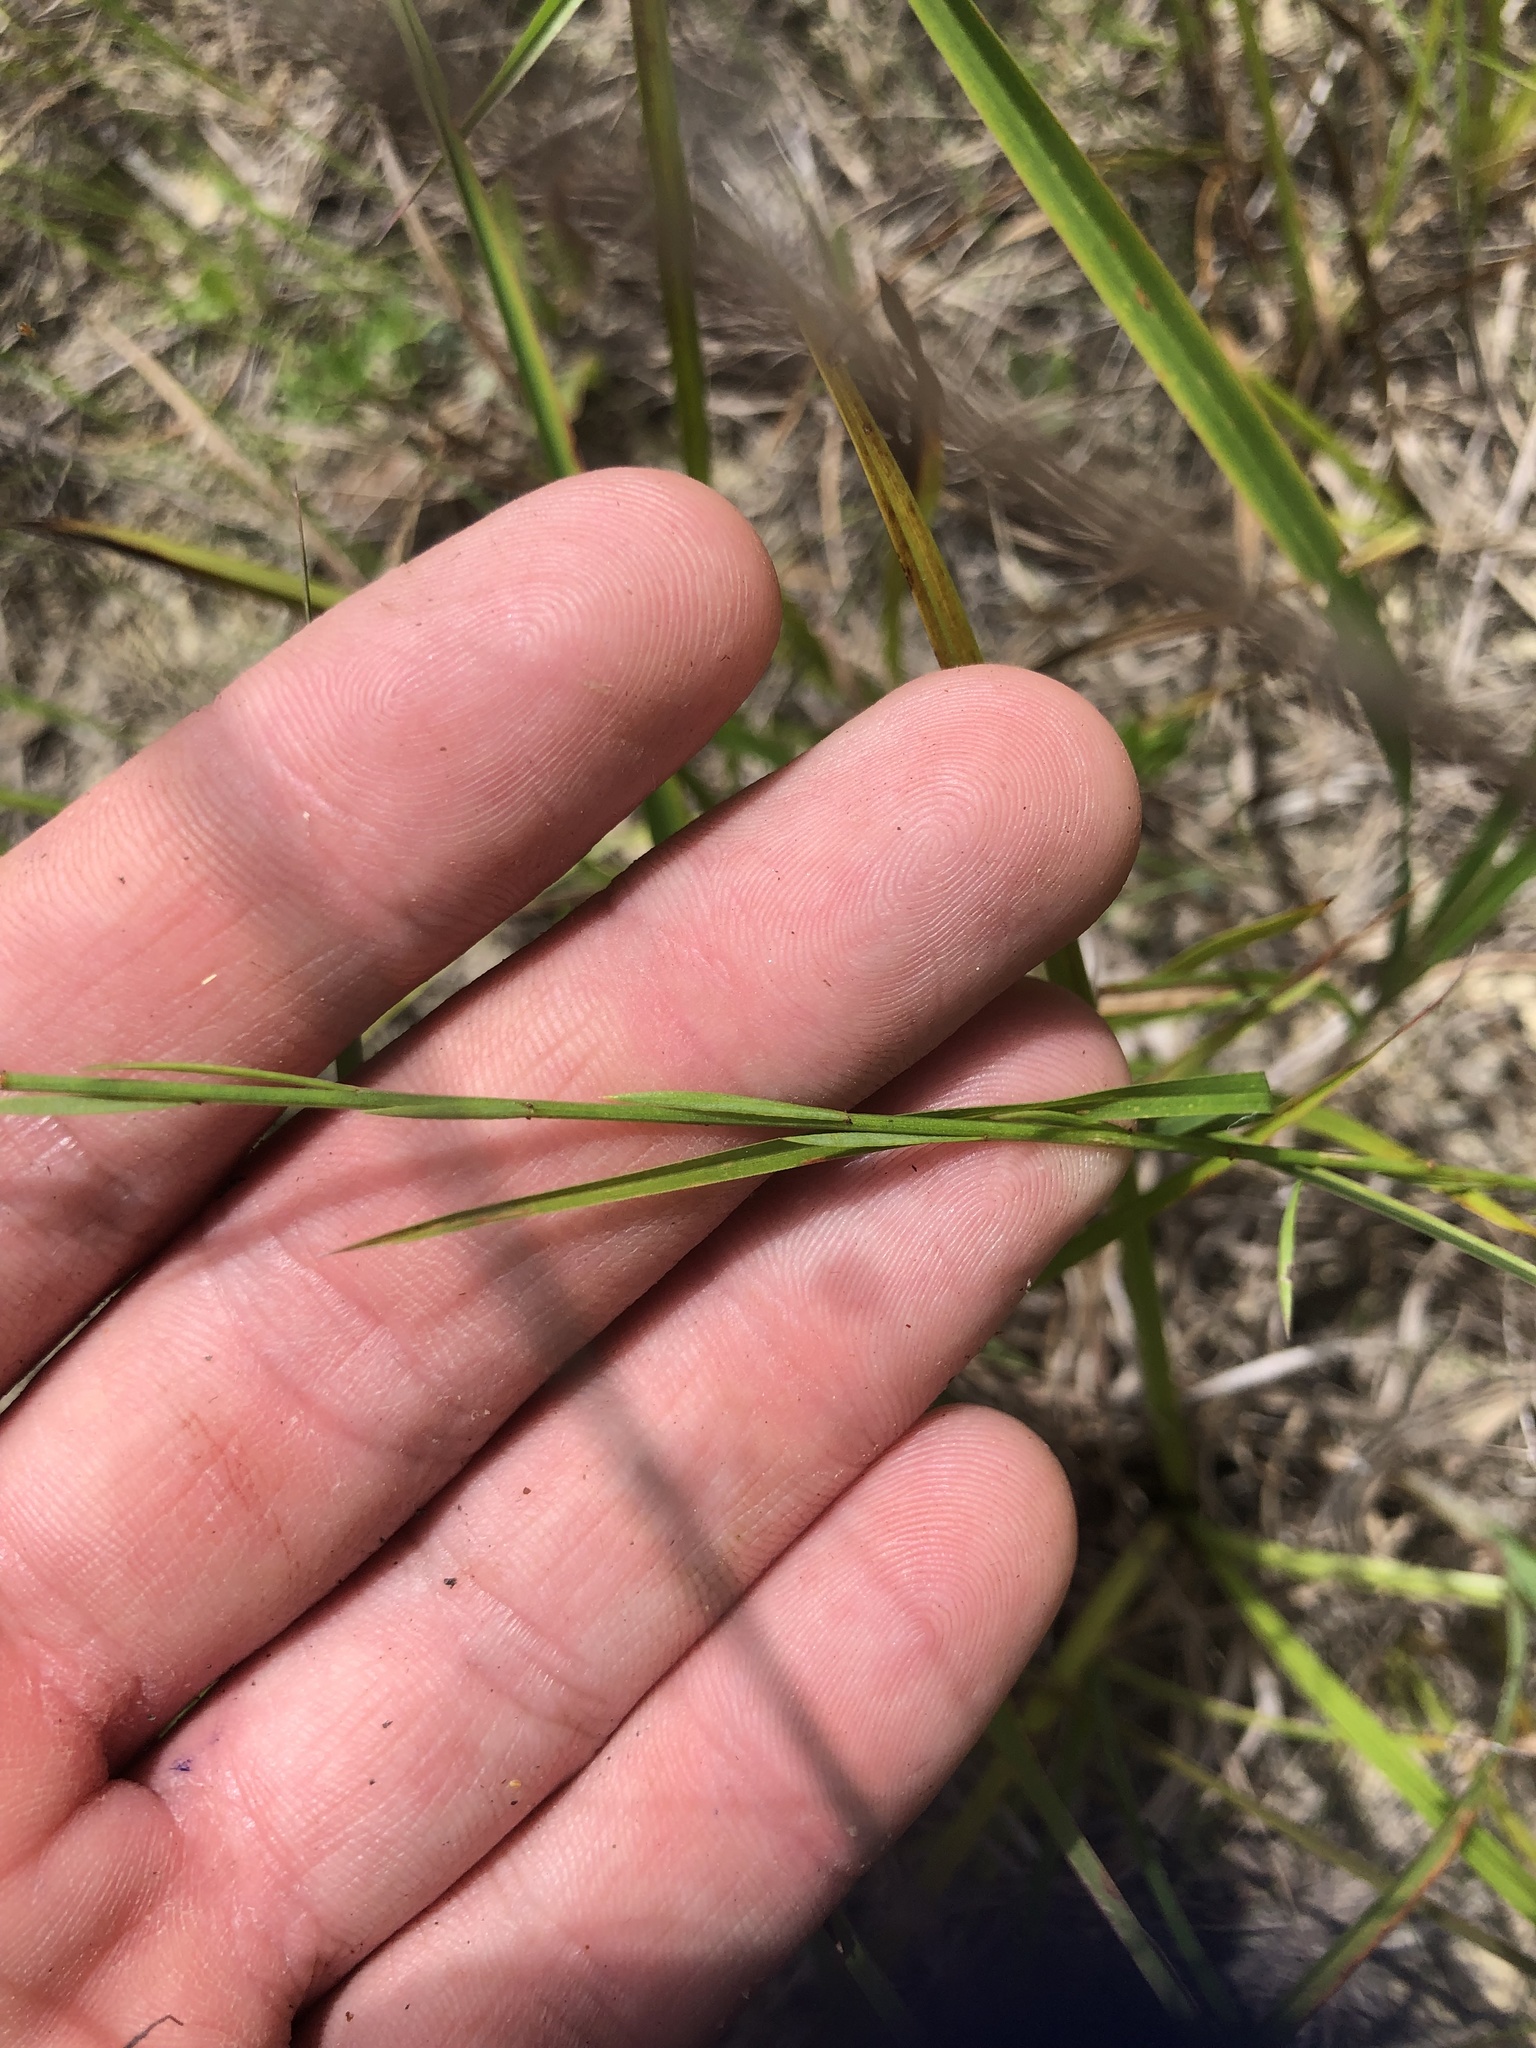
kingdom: Plantae
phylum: Tracheophyta
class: Magnoliopsida
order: Malpighiales
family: Linaceae
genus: Linum
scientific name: Linum sulcatum
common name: Grooved flax
